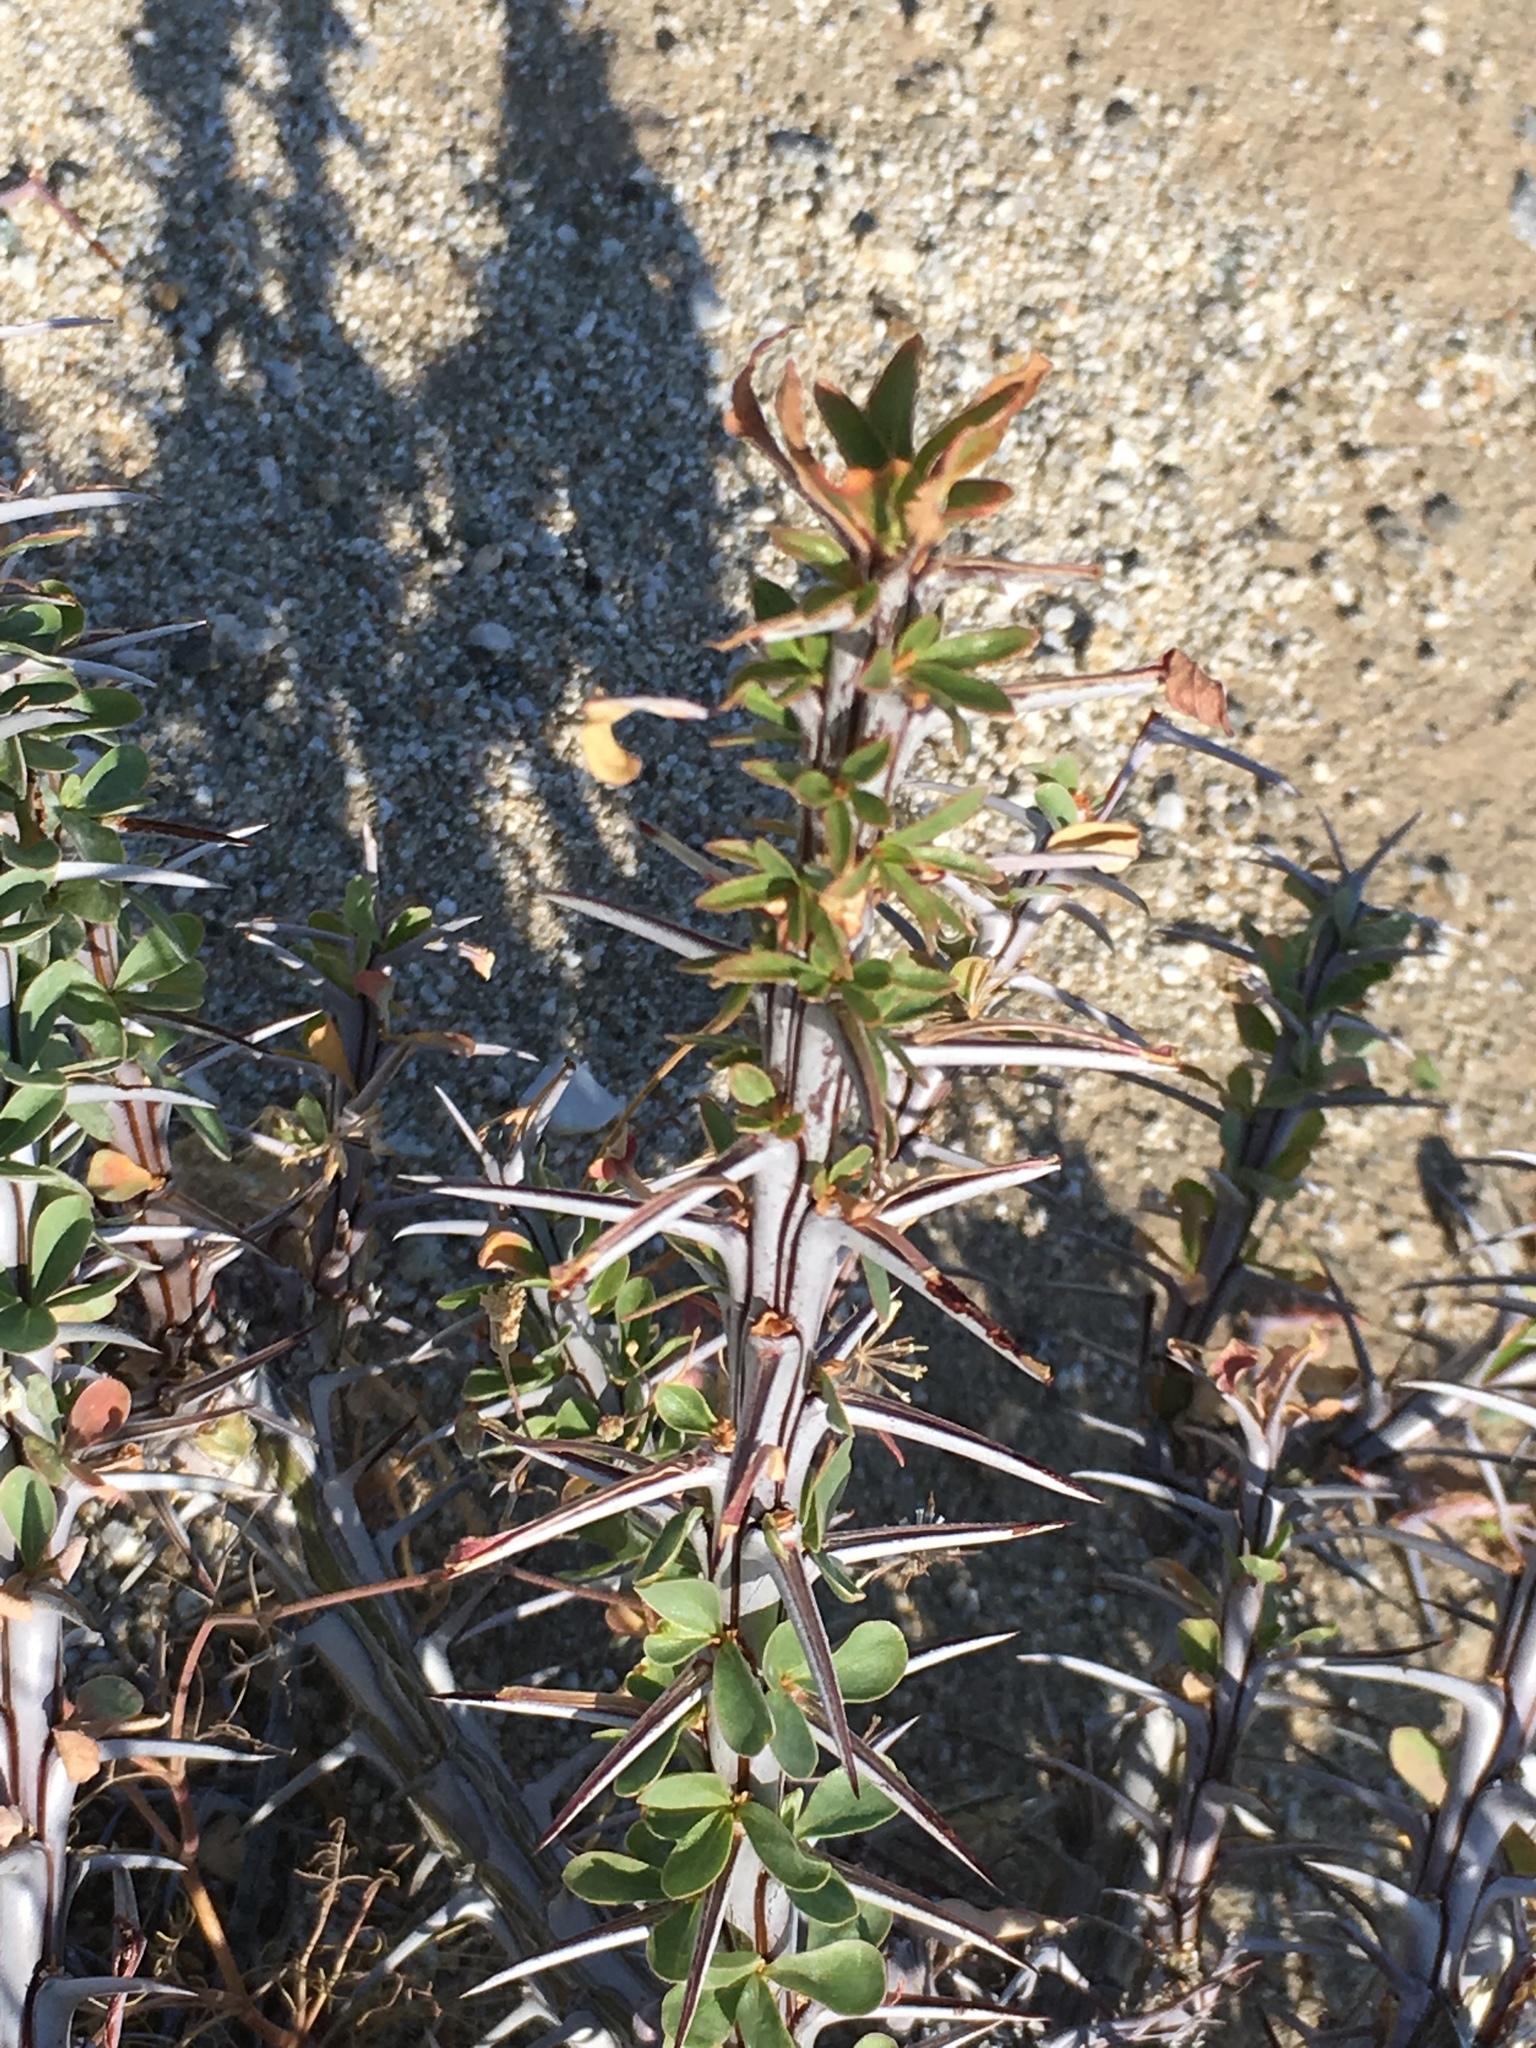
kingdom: Plantae
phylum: Tracheophyta
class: Magnoliopsida
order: Ericales
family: Fouquieriaceae
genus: Fouquieria
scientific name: Fouquieria splendens
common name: Vine-cactus
